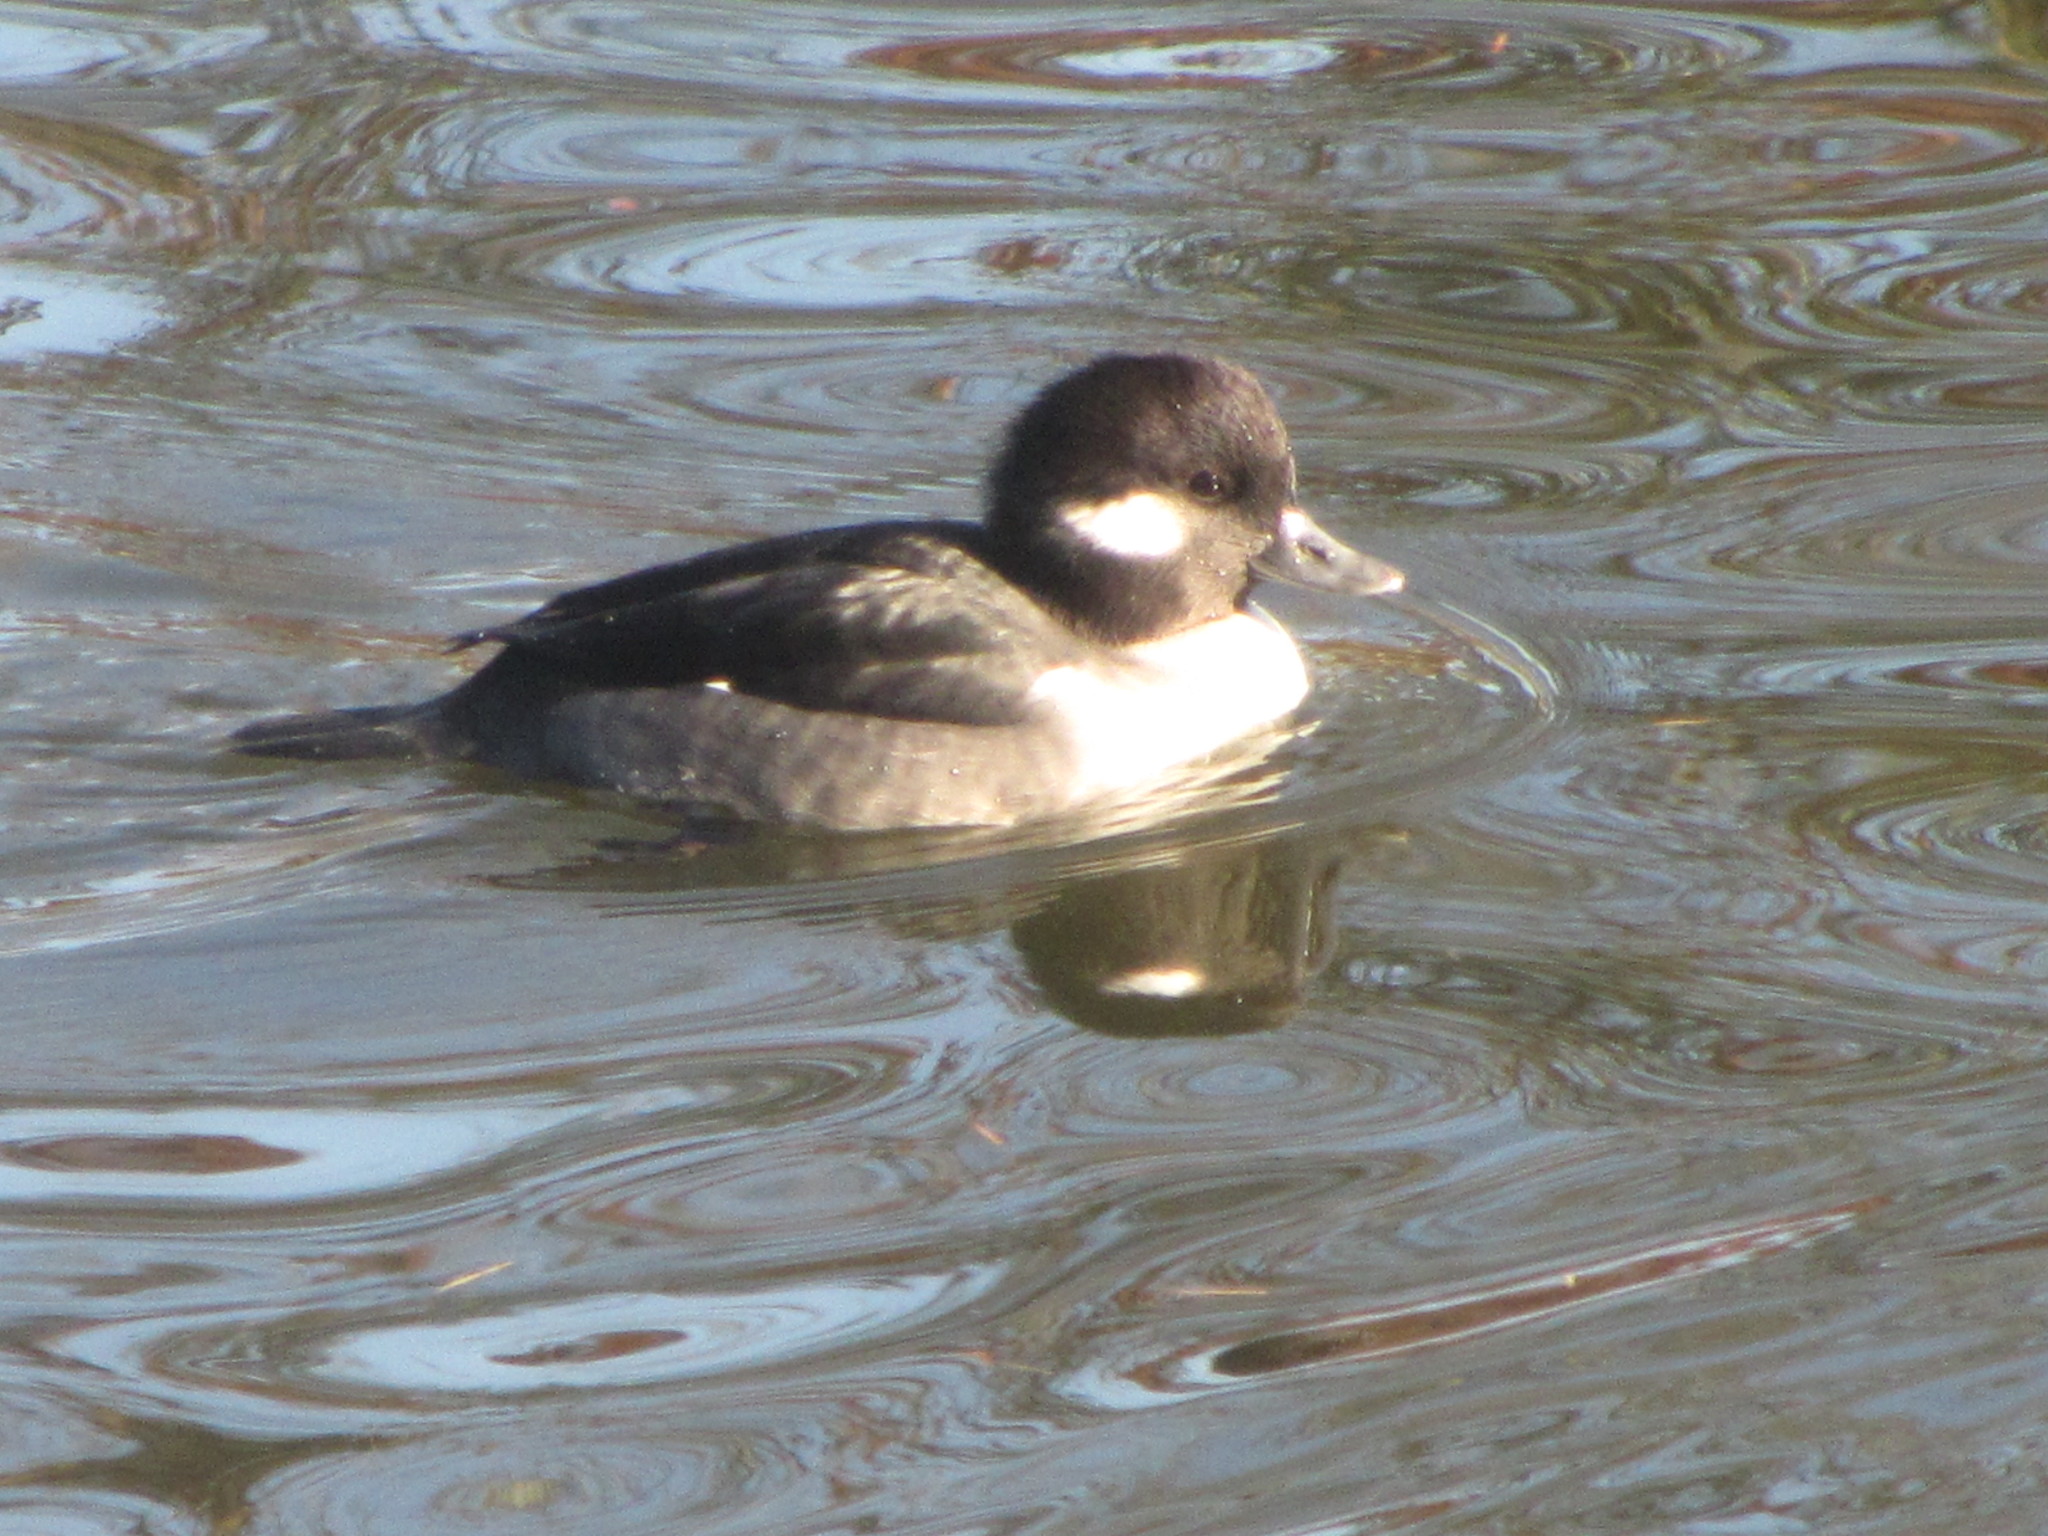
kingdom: Animalia
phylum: Chordata
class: Aves
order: Anseriformes
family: Anatidae
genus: Bucephala
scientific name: Bucephala albeola
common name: Bufflehead
